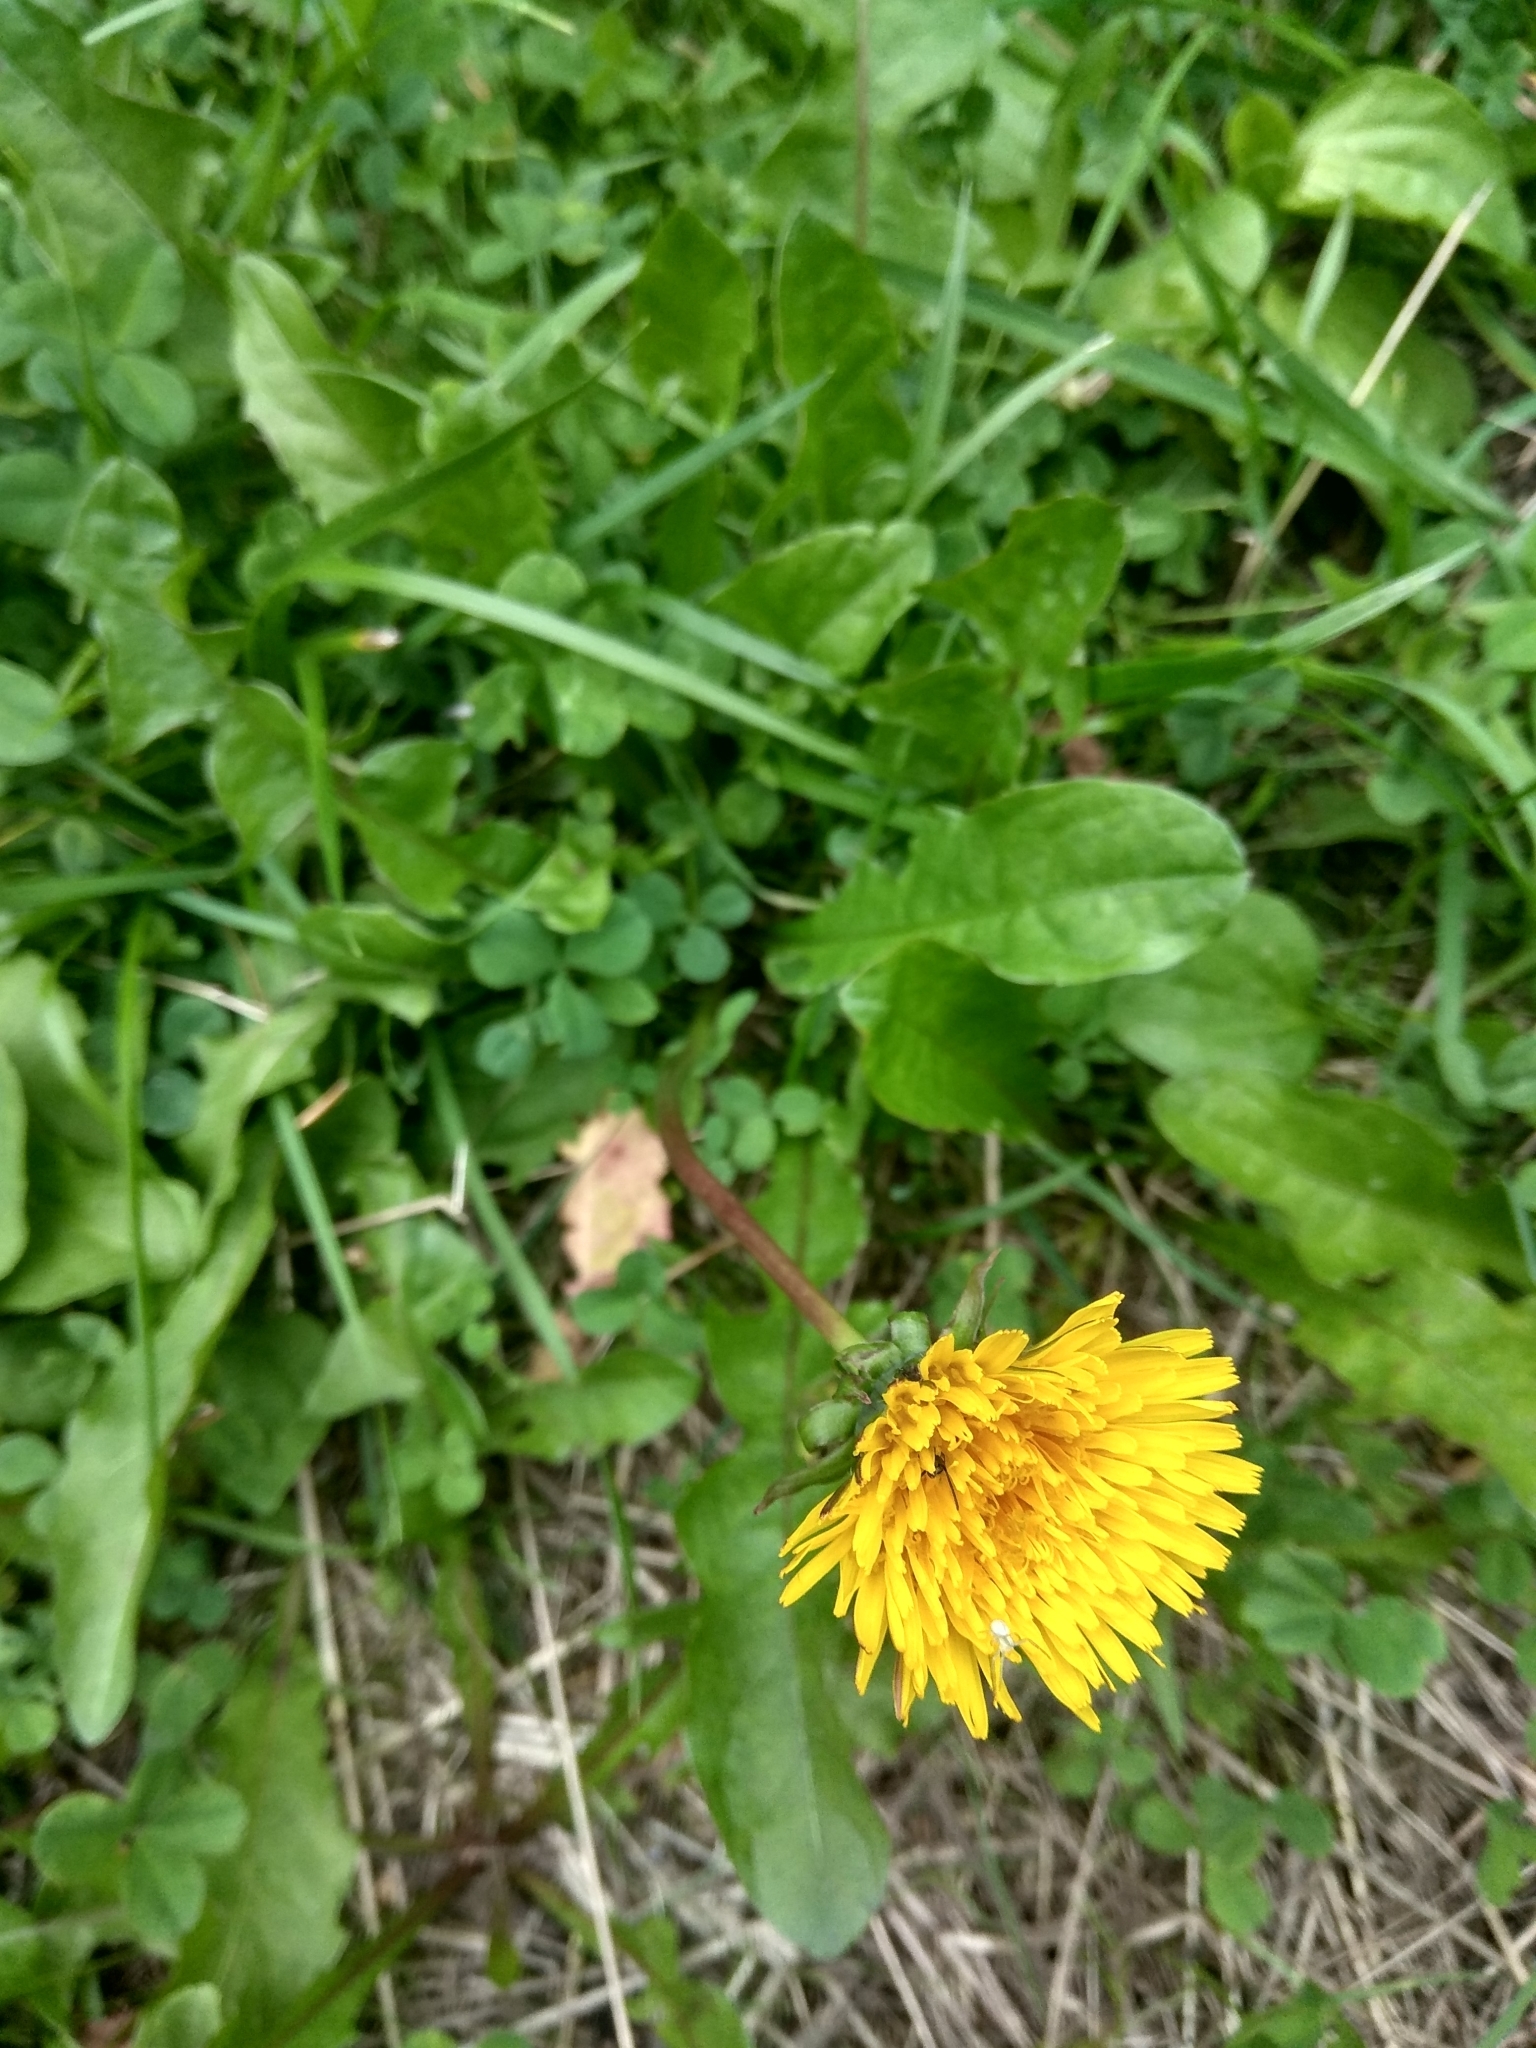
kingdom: Plantae
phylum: Tracheophyta
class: Magnoliopsida
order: Asterales
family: Asteraceae
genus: Taraxacum
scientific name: Taraxacum officinale
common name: Common dandelion
